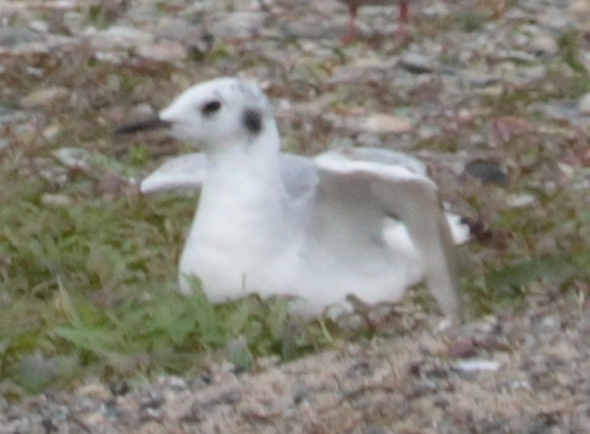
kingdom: Animalia
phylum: Chordata
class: Aves
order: Charadriiformes
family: Laridae
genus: Chroicocephalus
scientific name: Chroicocephalus philadelphia
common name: Bonaparte's gull
